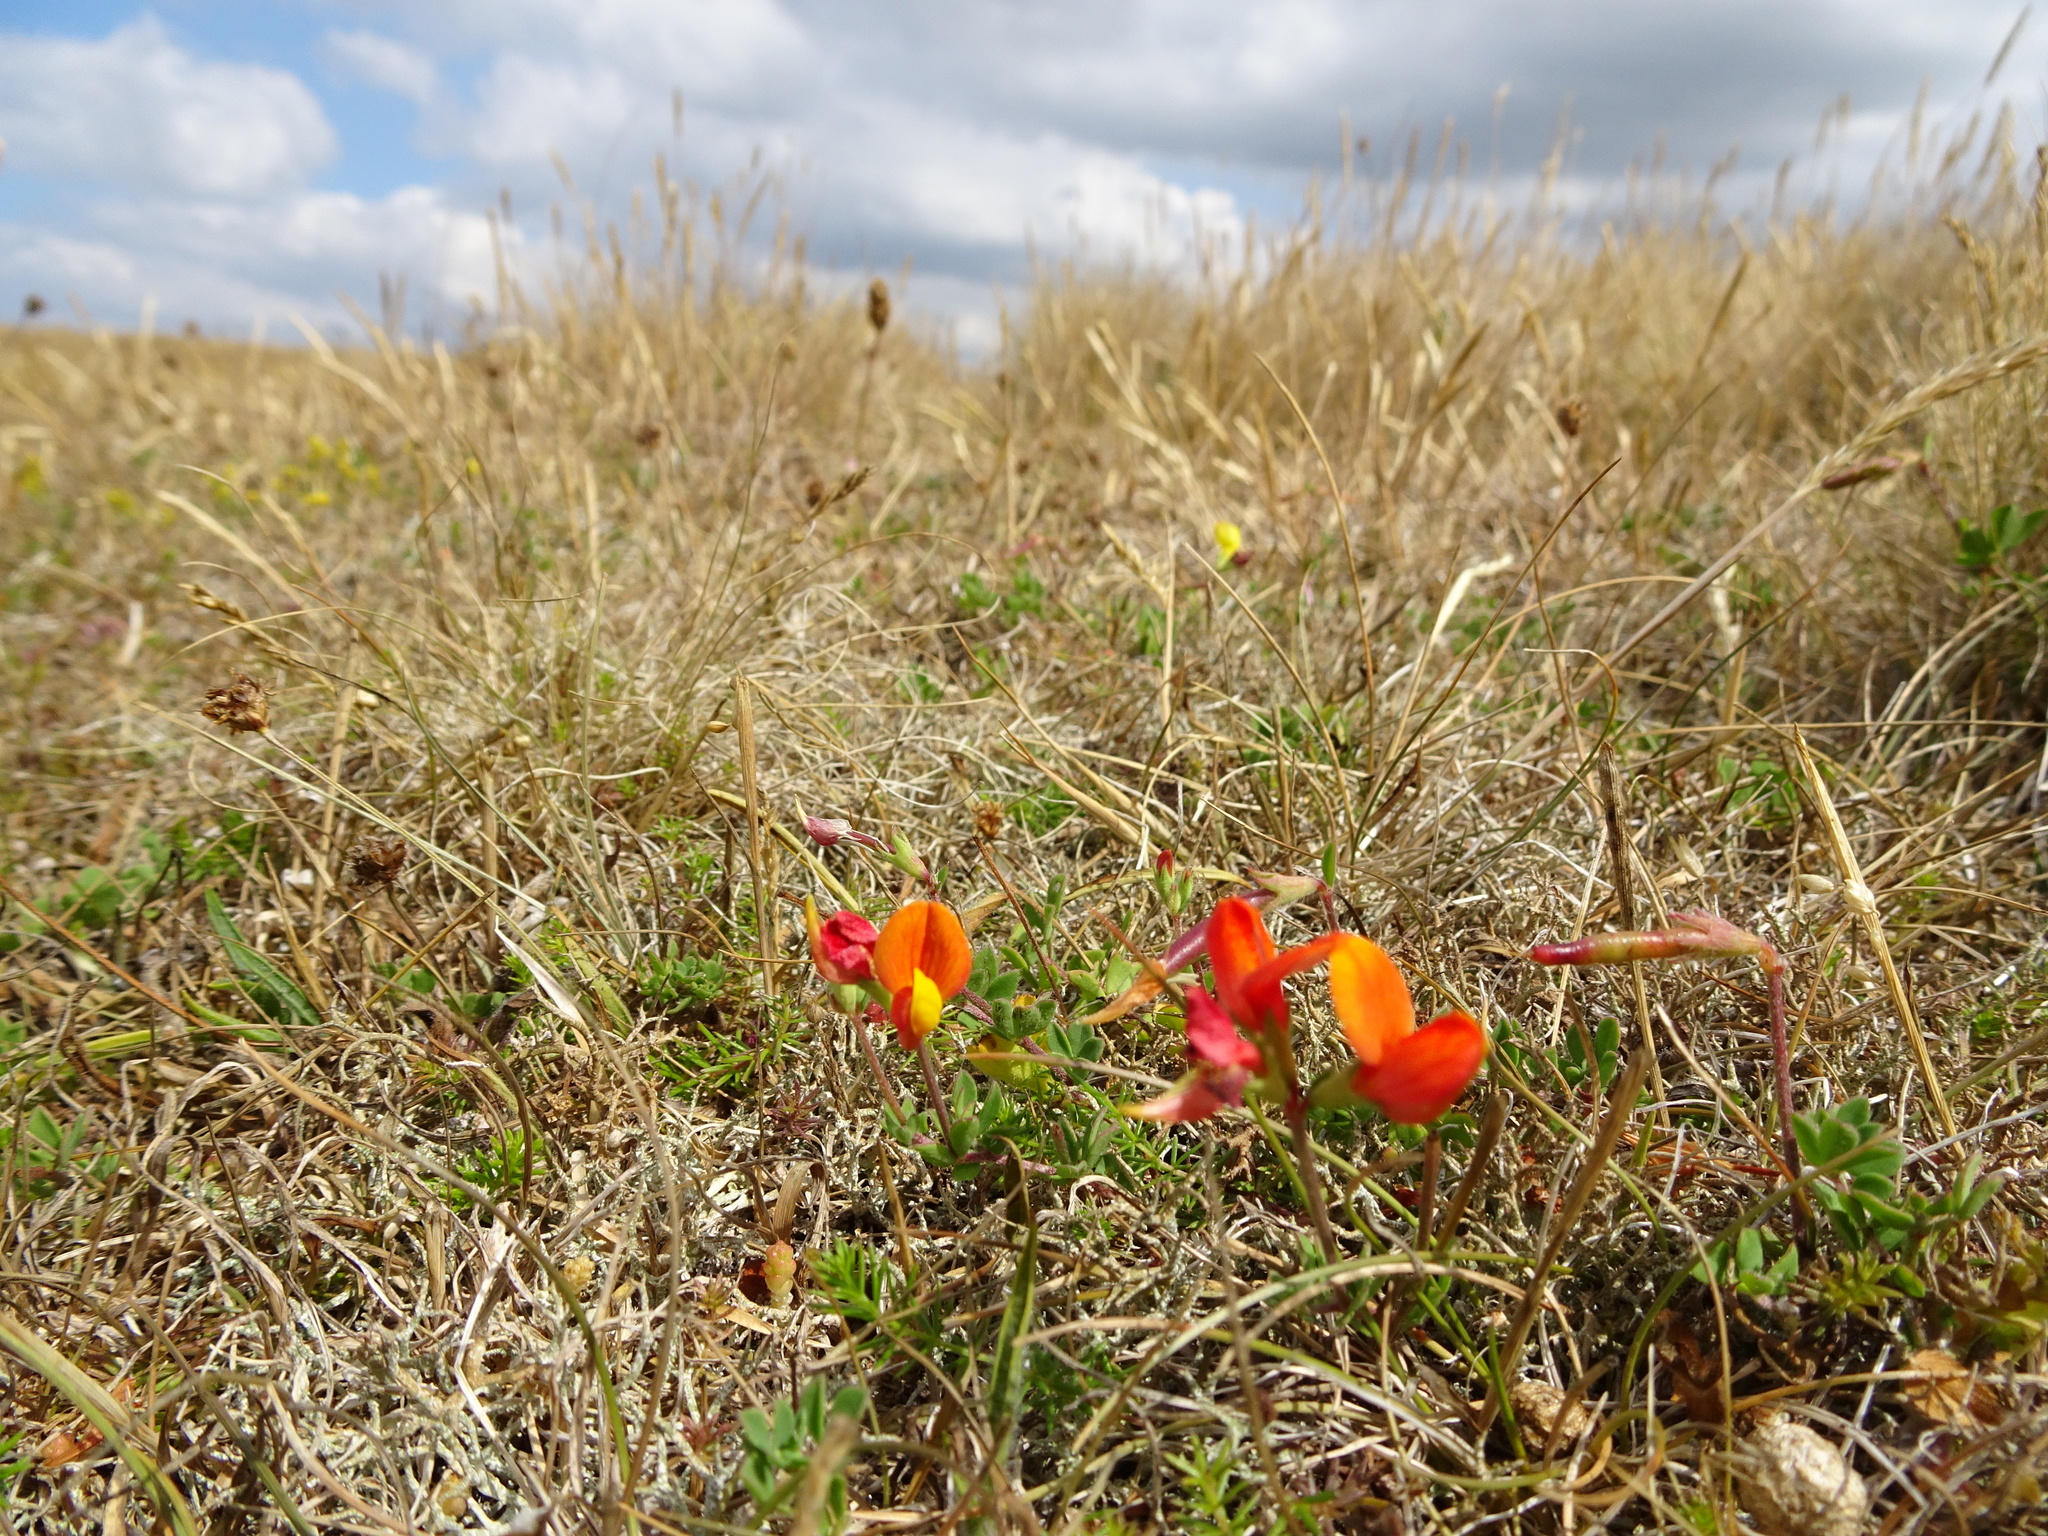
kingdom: Plantae
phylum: Tracheophyta
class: Magnoliopsida
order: Fabales
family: Fabaceae
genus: Lotus
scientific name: Lotus corniculatus
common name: Common bird's-foot-trefoil
